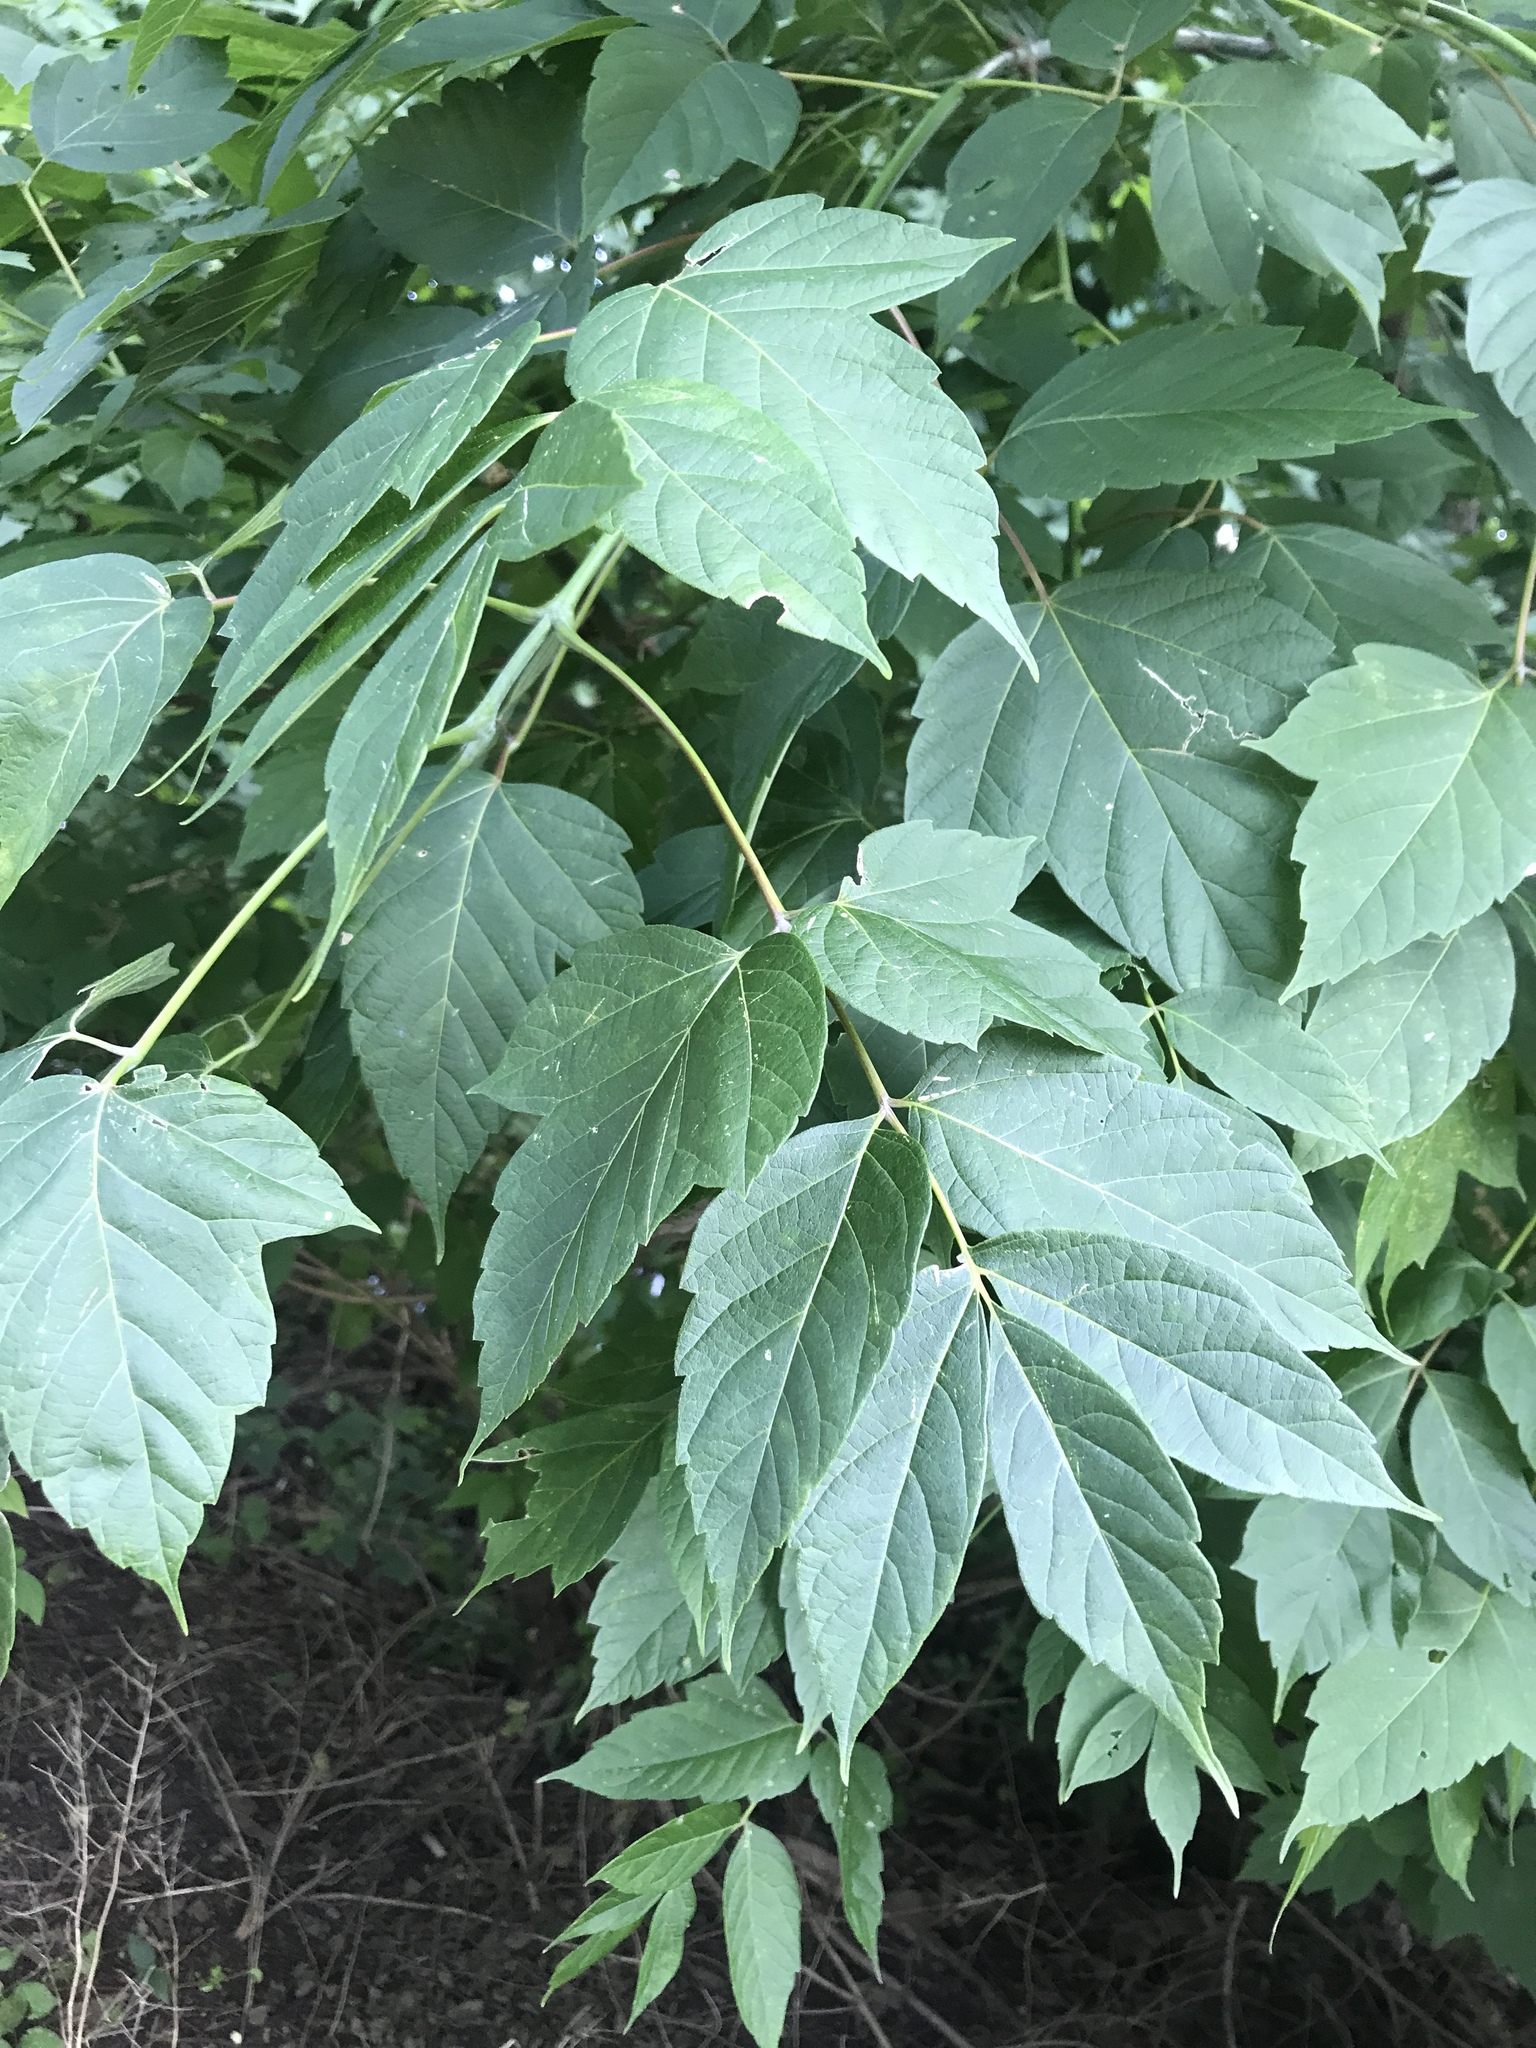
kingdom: Plantae
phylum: Tracheophyta
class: Magnoliopsida
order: Sapindales
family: Sapindaceae
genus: Acer
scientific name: Acer negundo
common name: Ashleaf maple
